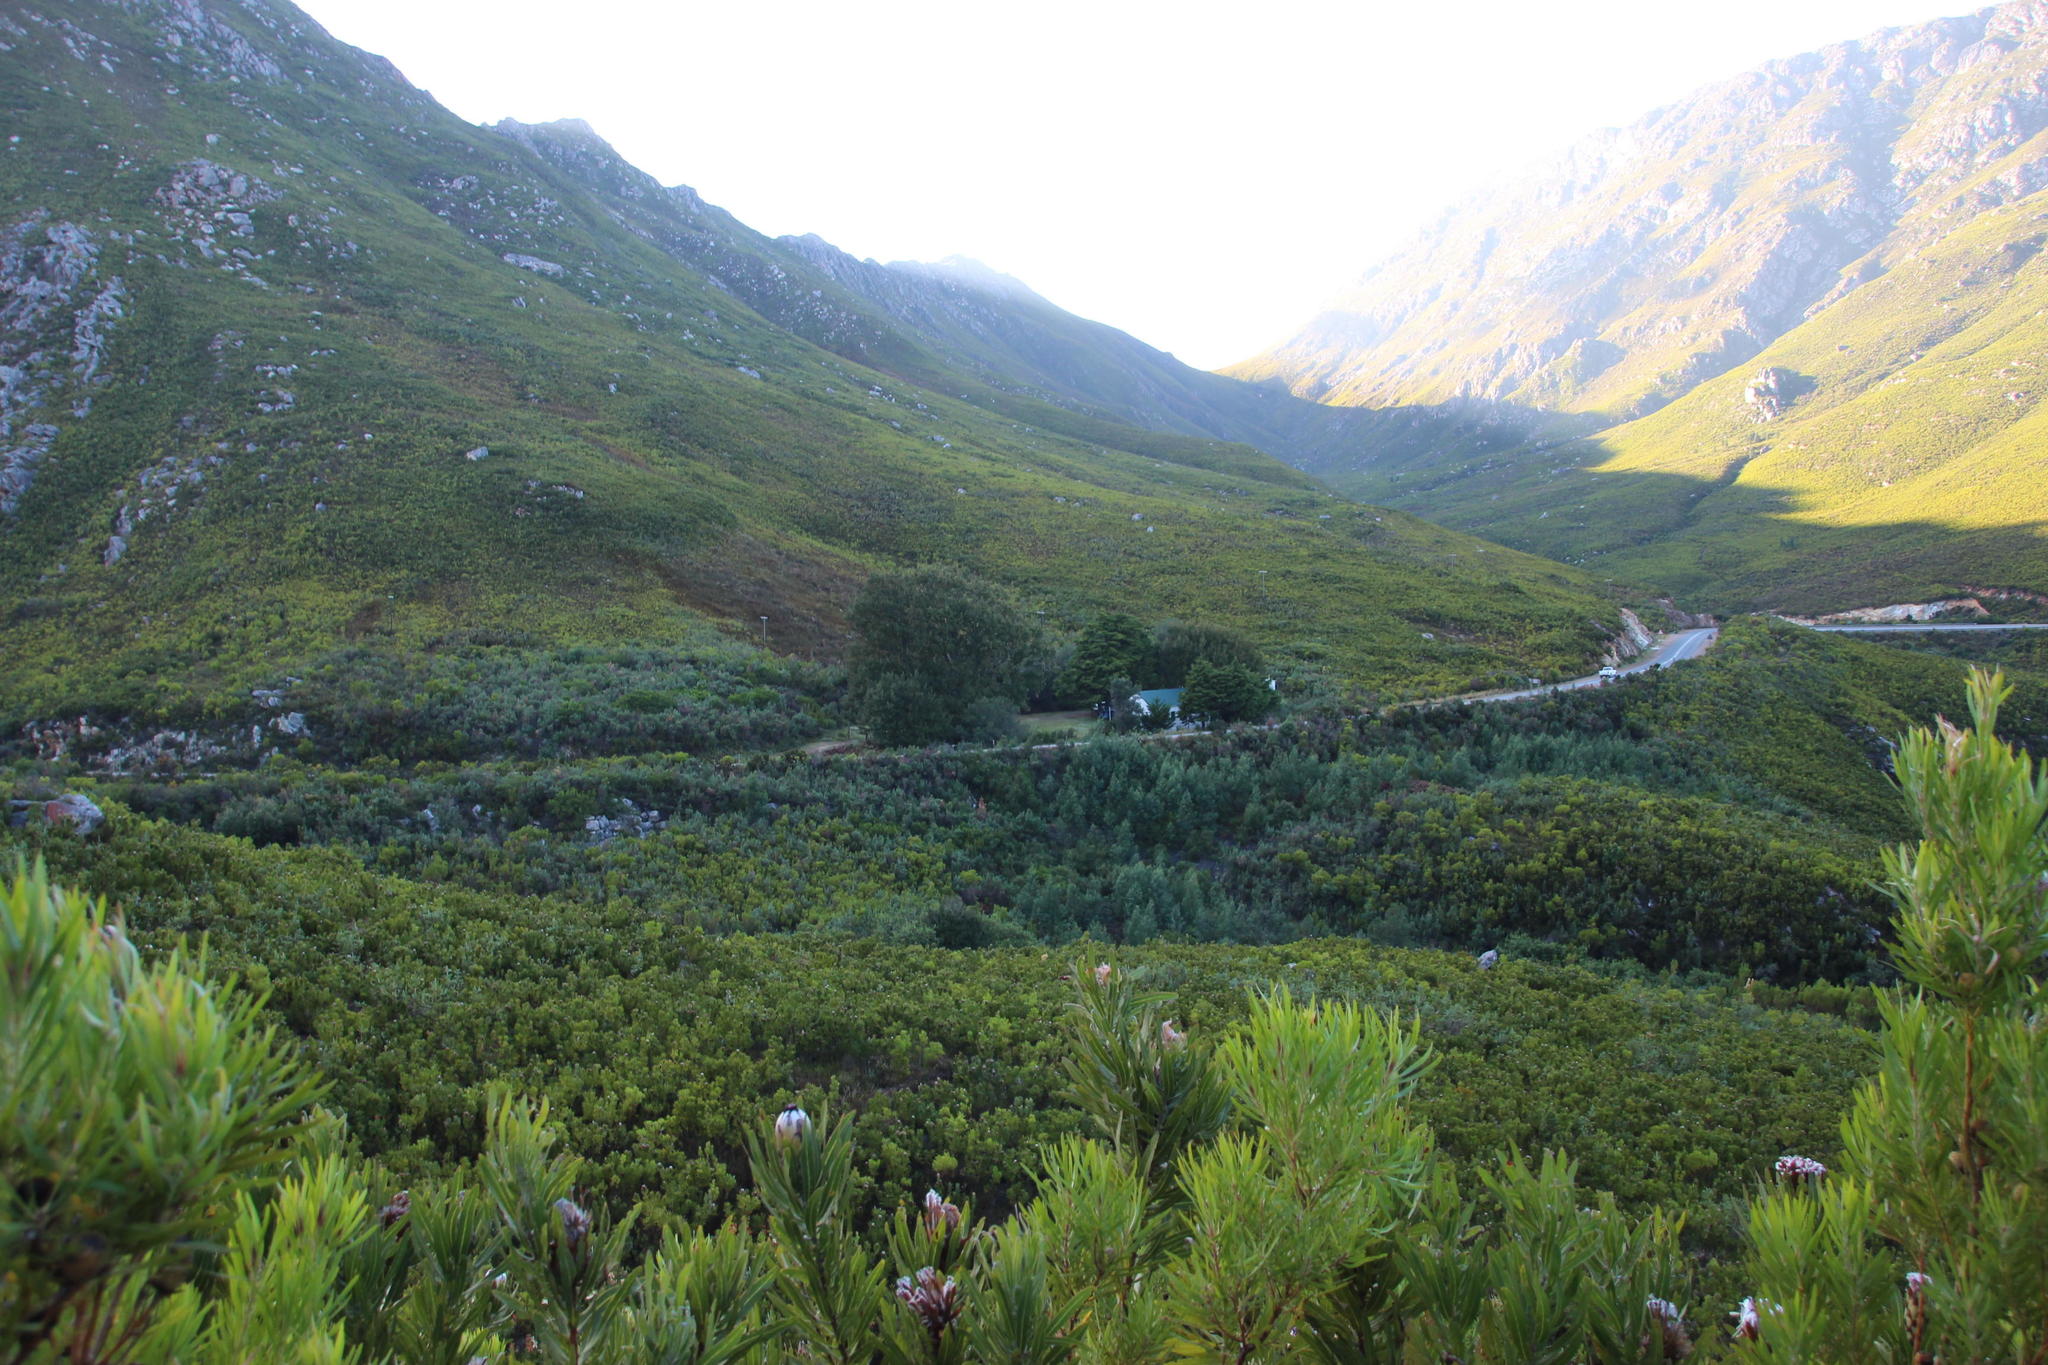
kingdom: Plantae
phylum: Tracheophyta
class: Magnoliopsida
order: Proteales
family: Proteaceae
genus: Leucadendron
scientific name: Leucadendron eucalyptifolium
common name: Gum-leaved conebush
